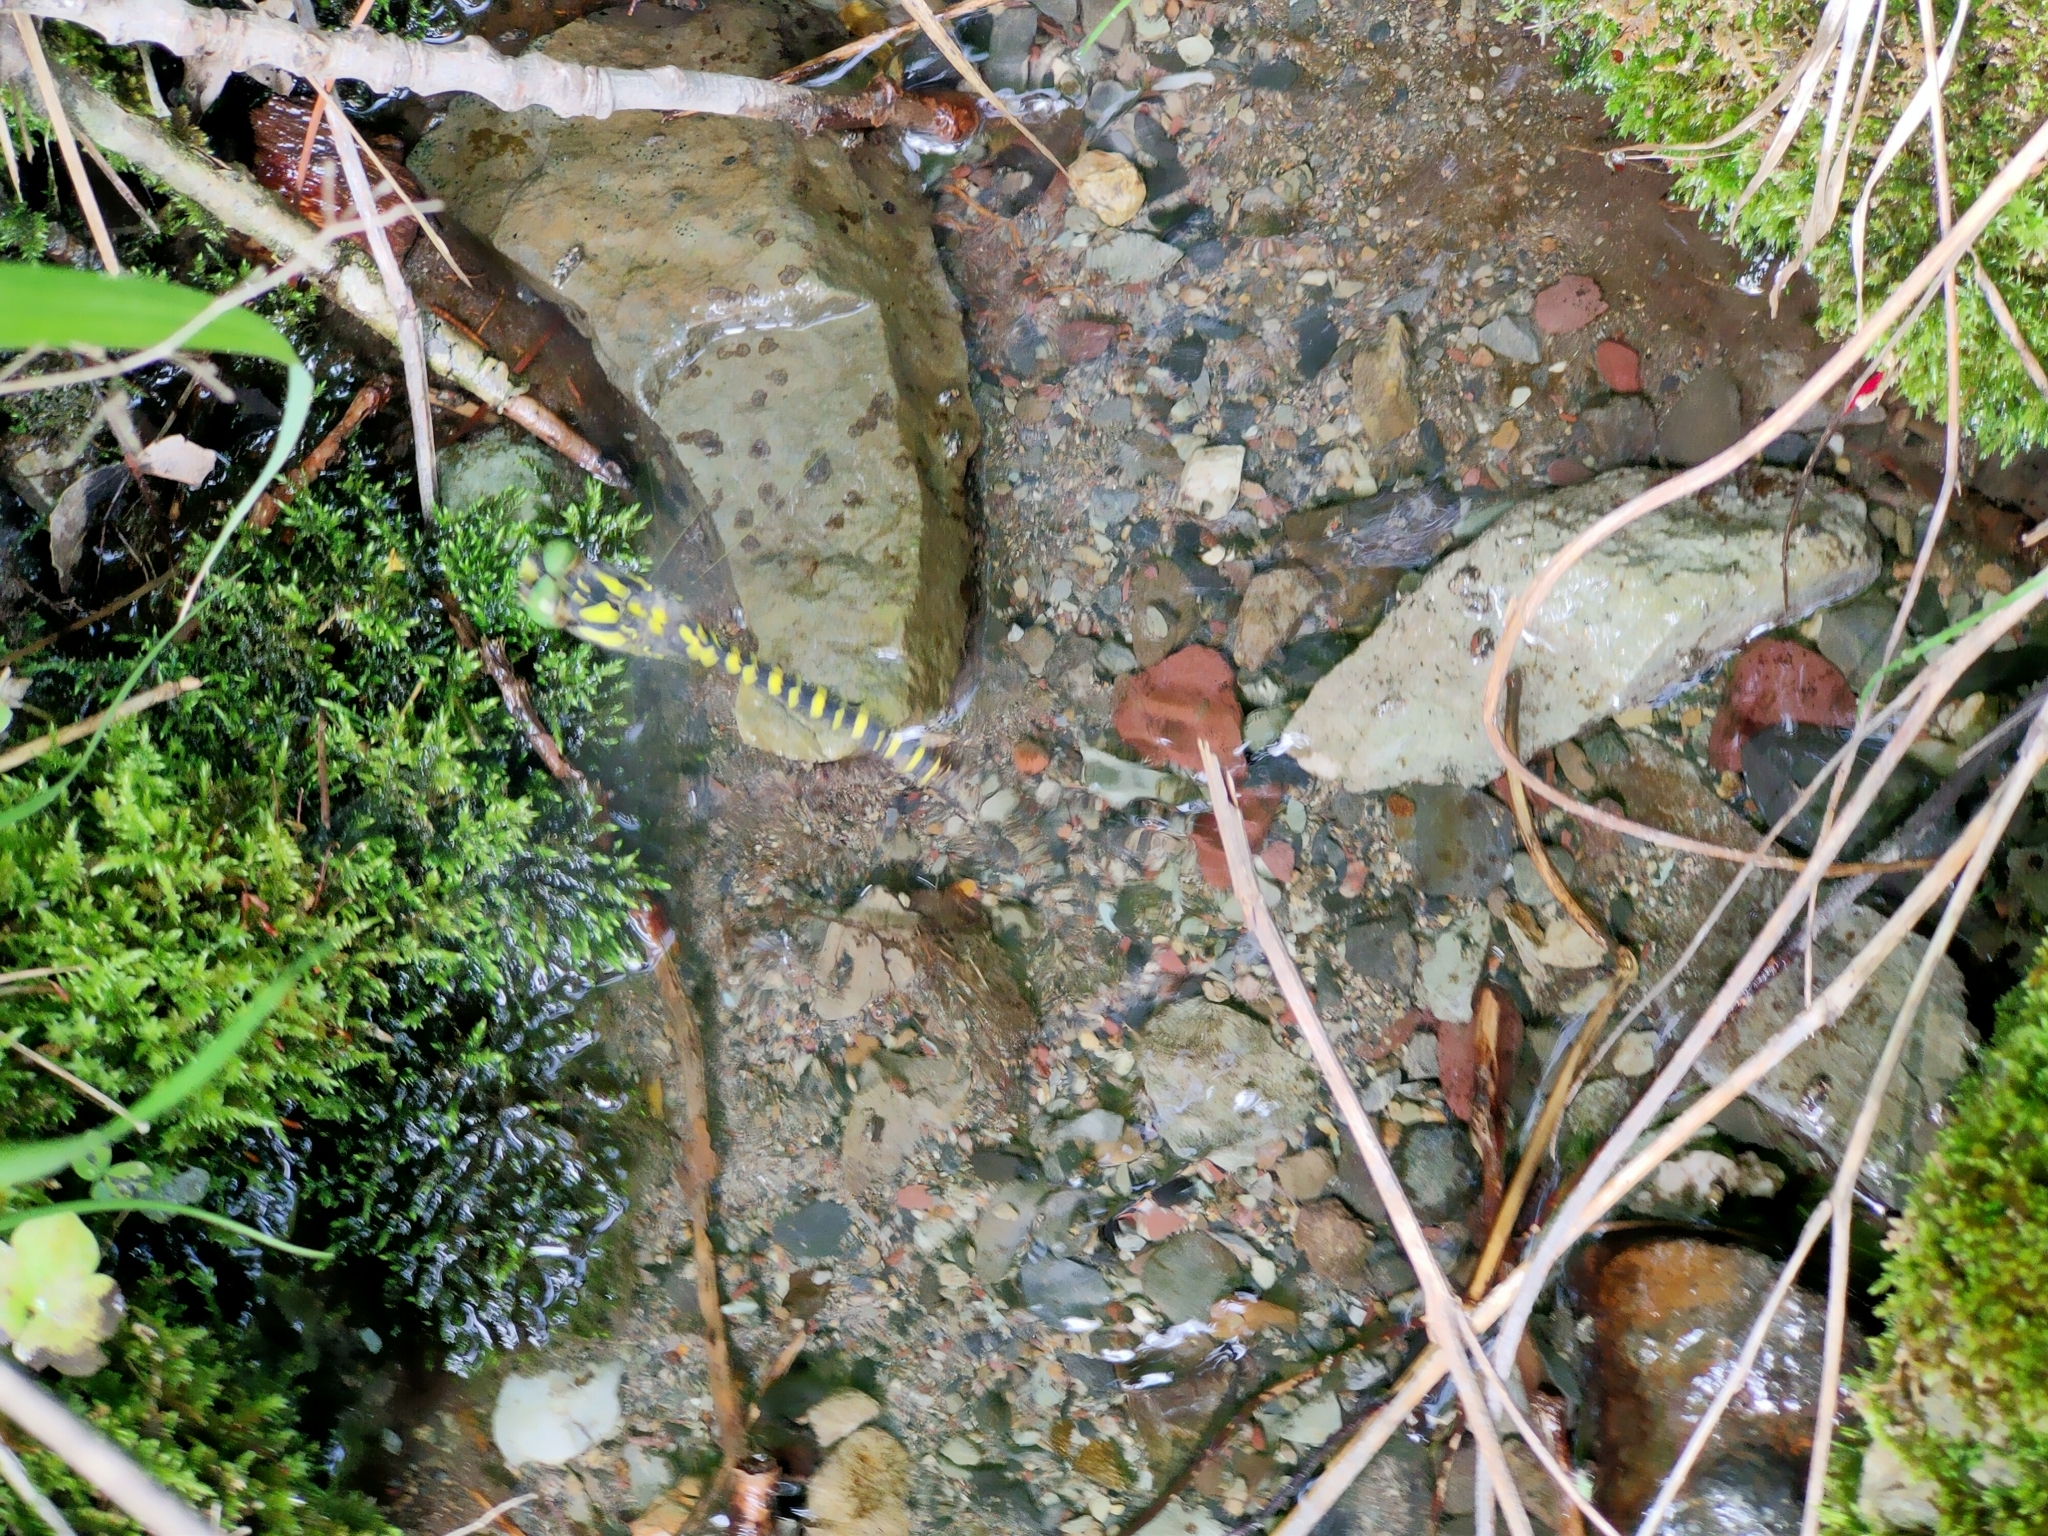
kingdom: Animalia
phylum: Arthropoda
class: Insecta
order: Odonata
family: Cordulegastridae
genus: Neallogaster
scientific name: Neallogaster pekinensis
